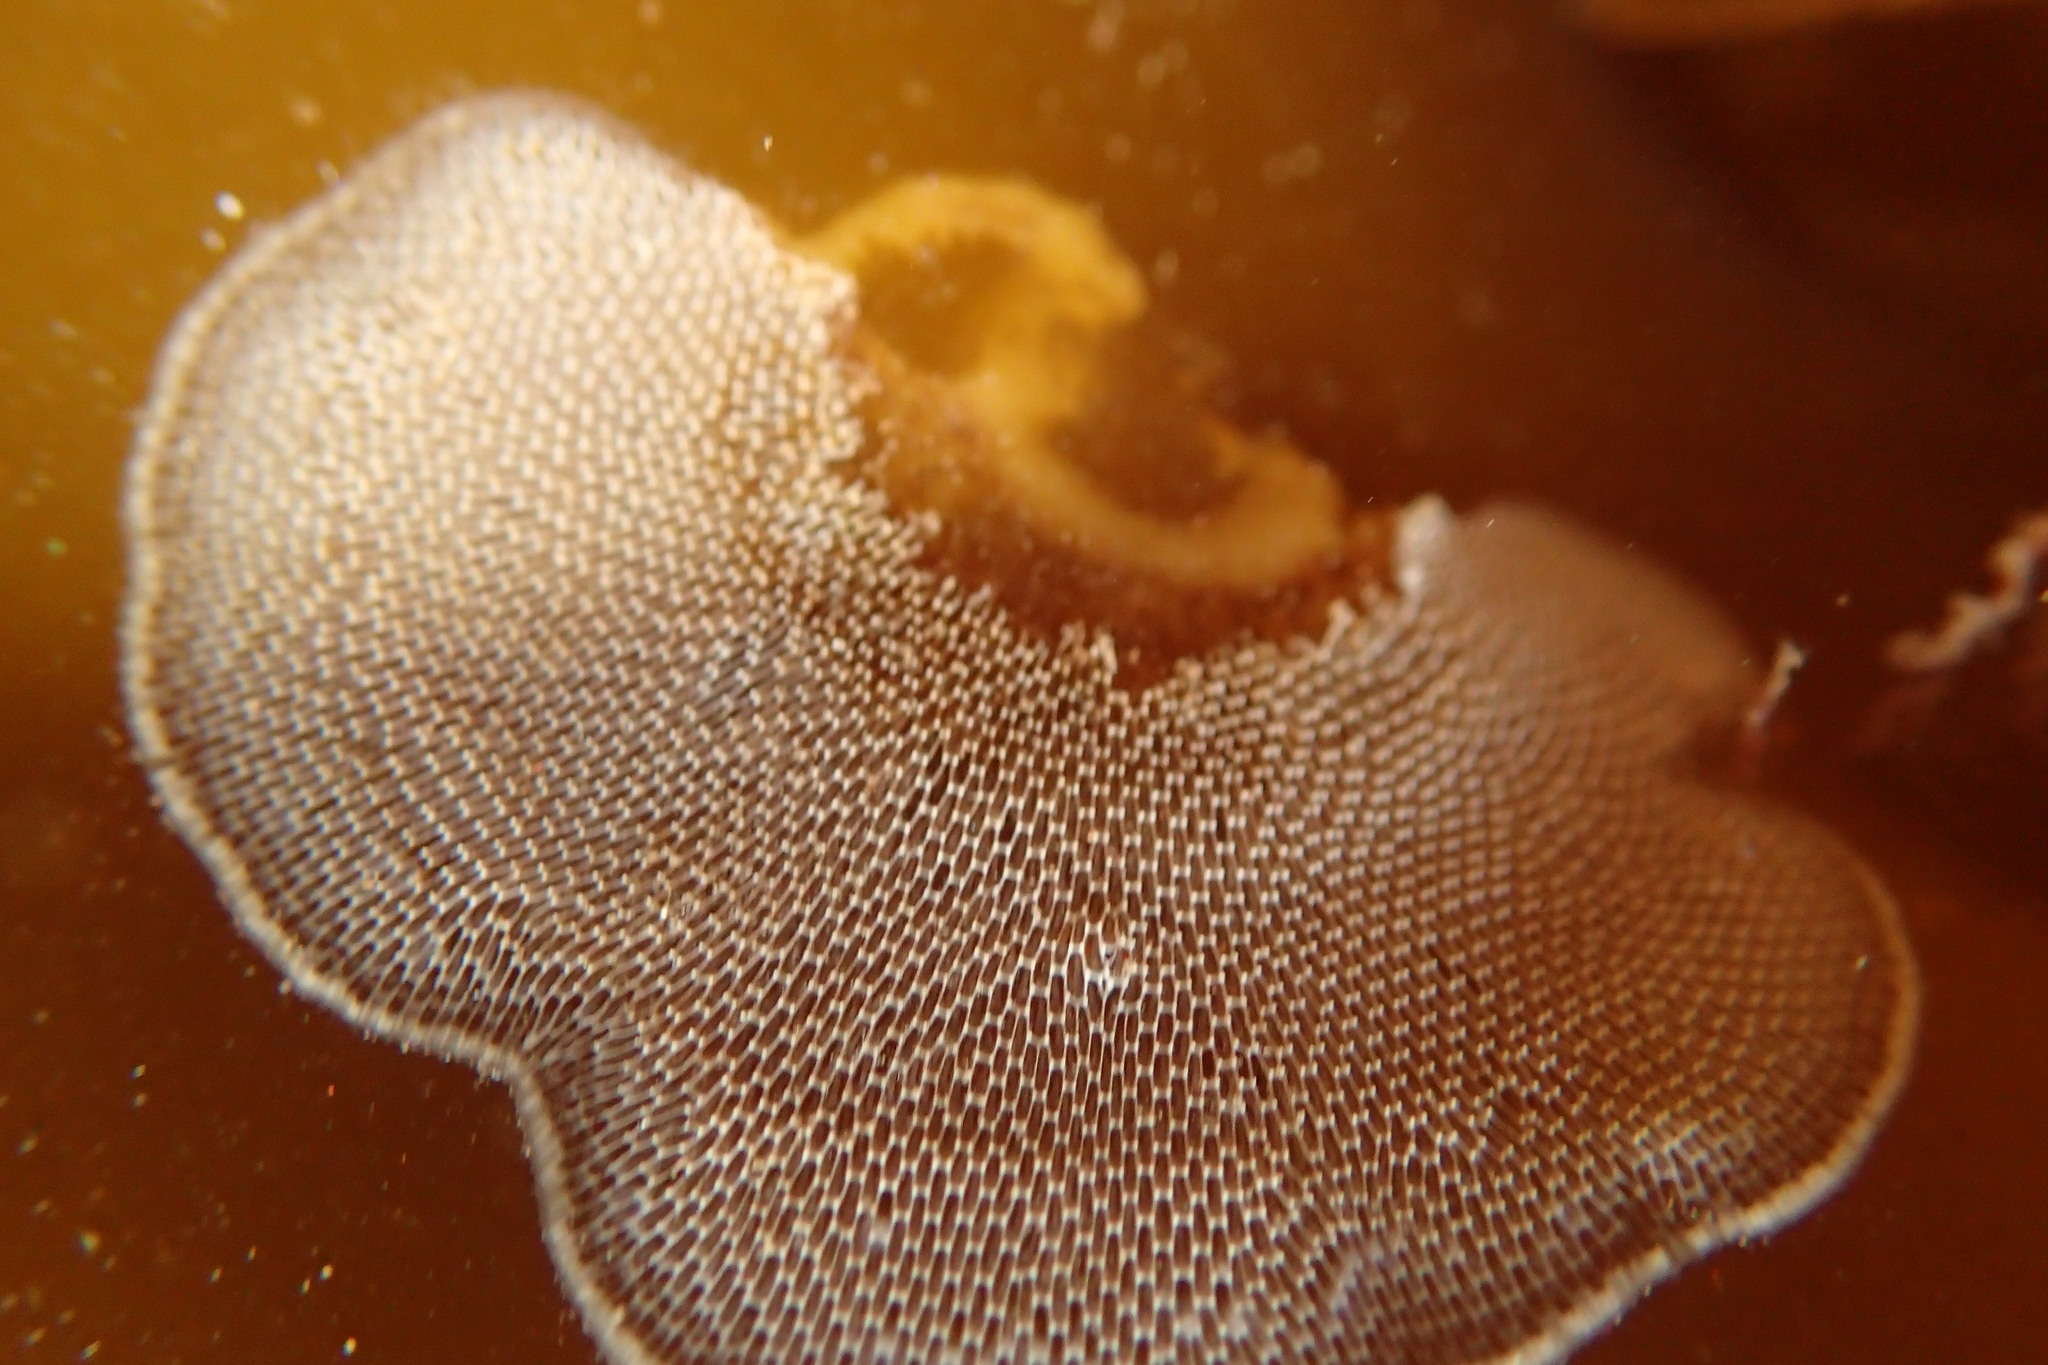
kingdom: Animalia
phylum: Bryozoa
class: Gymnolaemata
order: Cheilostomatida
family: Membraniporidae
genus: Membranipora
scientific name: Membranipora membranacea
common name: Sea mat
